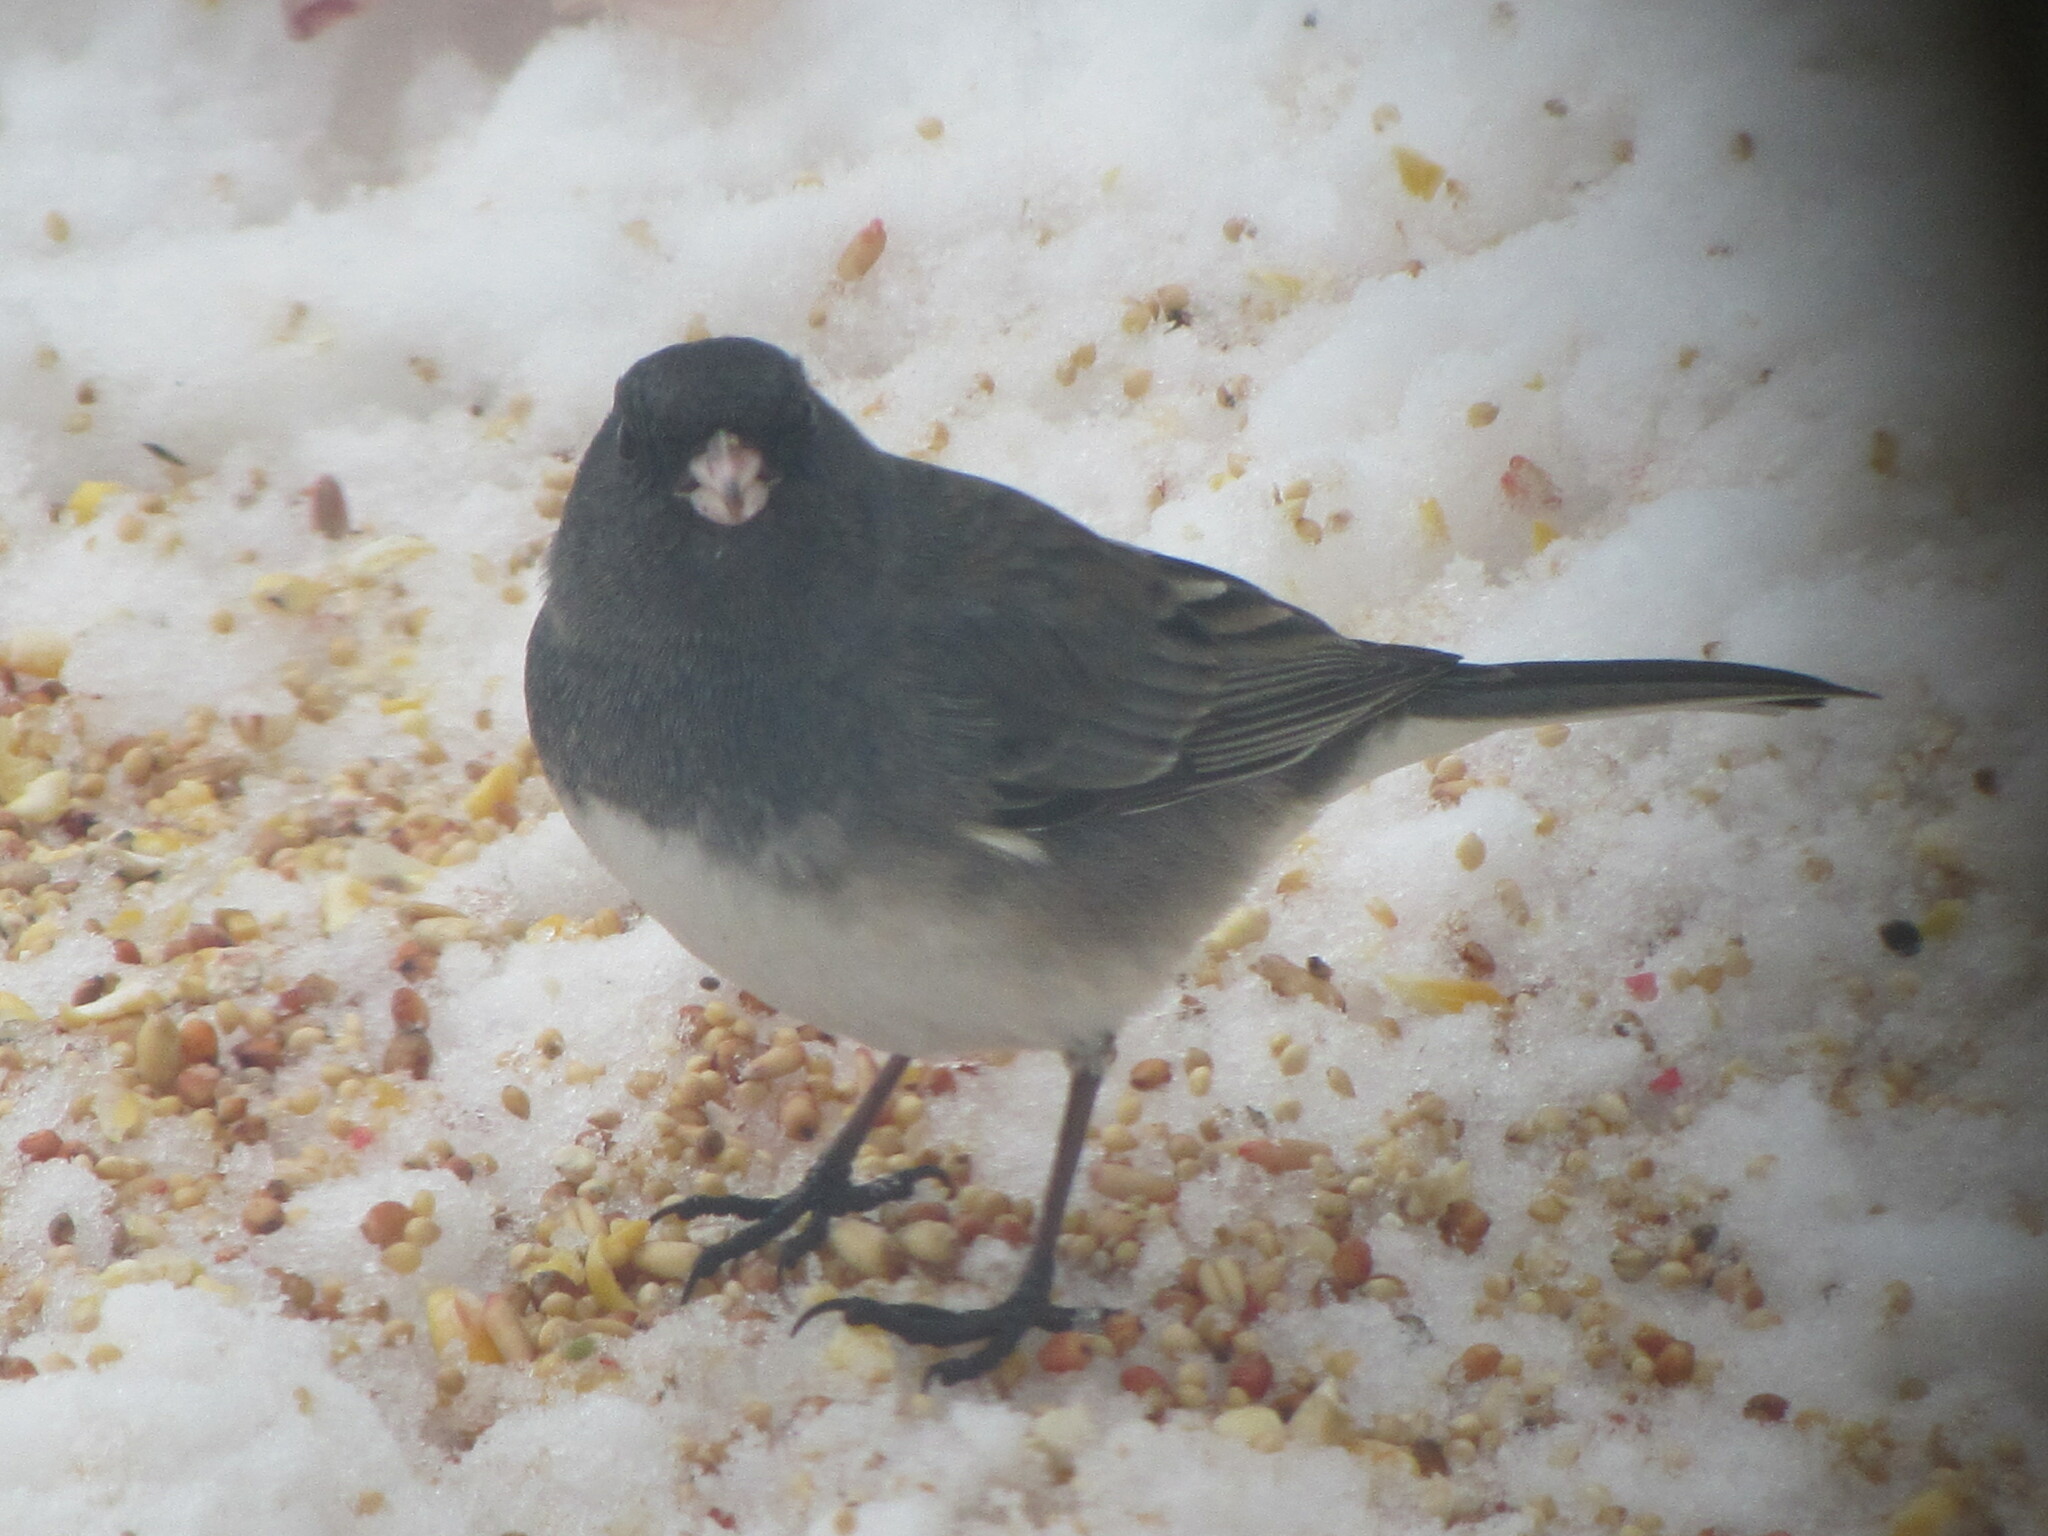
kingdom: Animalia
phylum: Chordata
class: Aves
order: Passeriformes
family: Passerellidae
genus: Junco
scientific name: Junco hyemalis
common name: Dark-eyed junco
